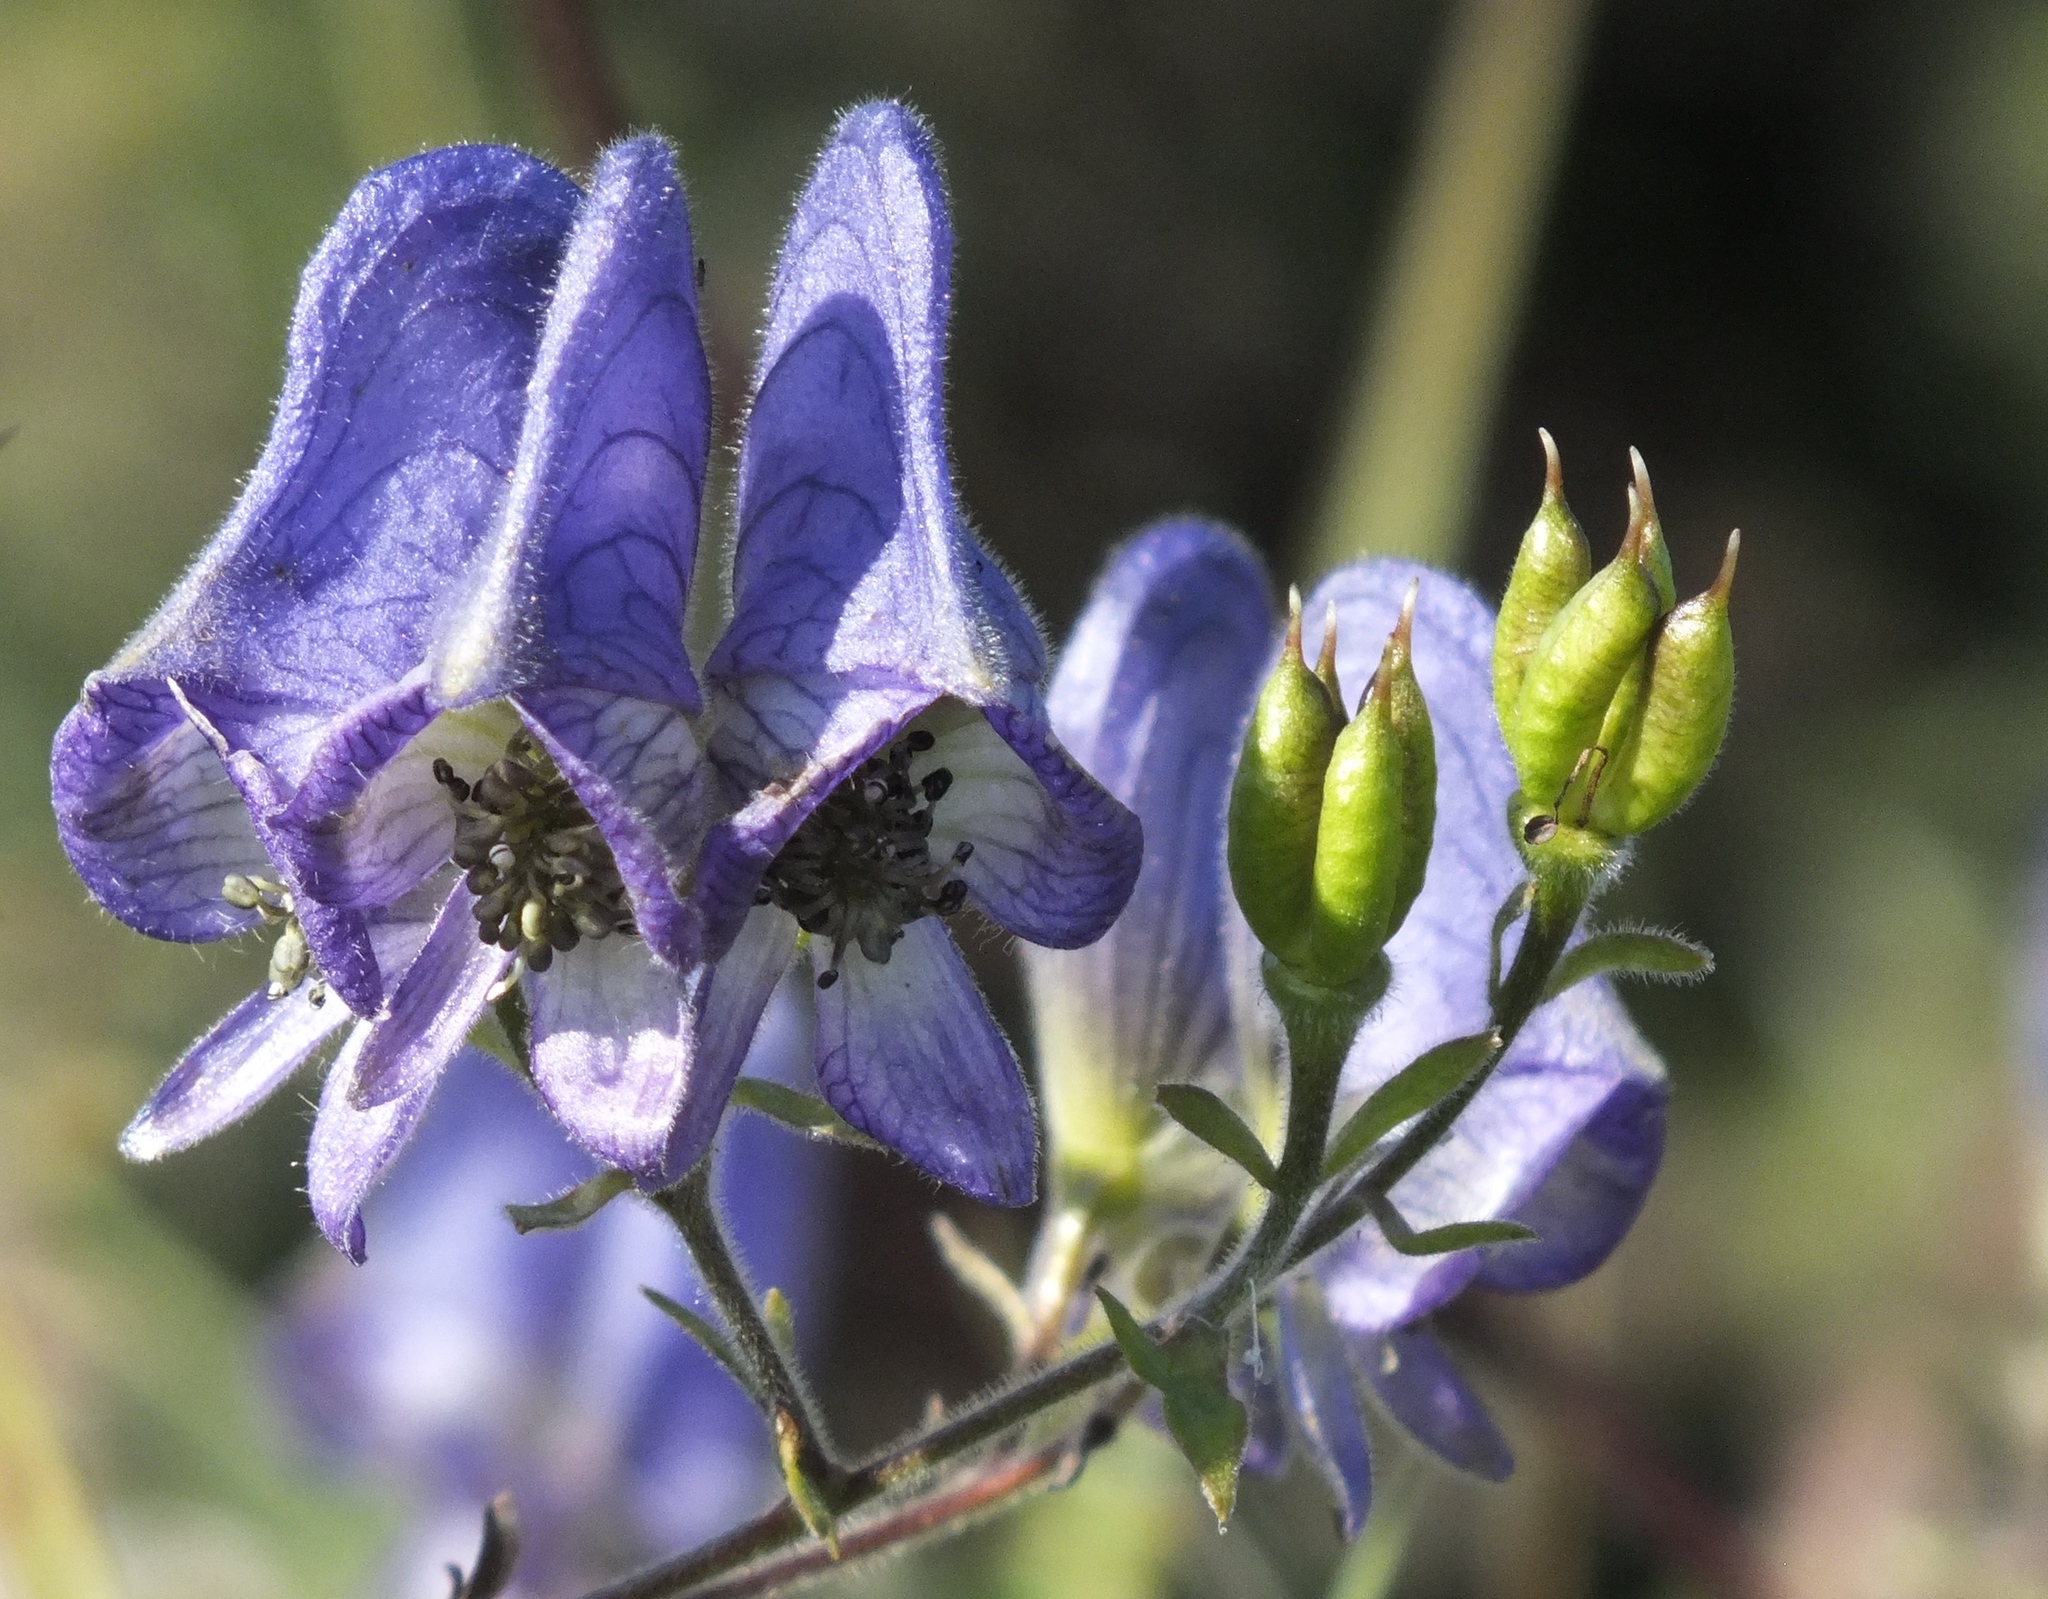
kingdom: Plantae
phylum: Tracheophyta
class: Magnoliopsida
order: Ranunculales
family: Ranunculaceae
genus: Aconitum
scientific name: Aconitum volubile
